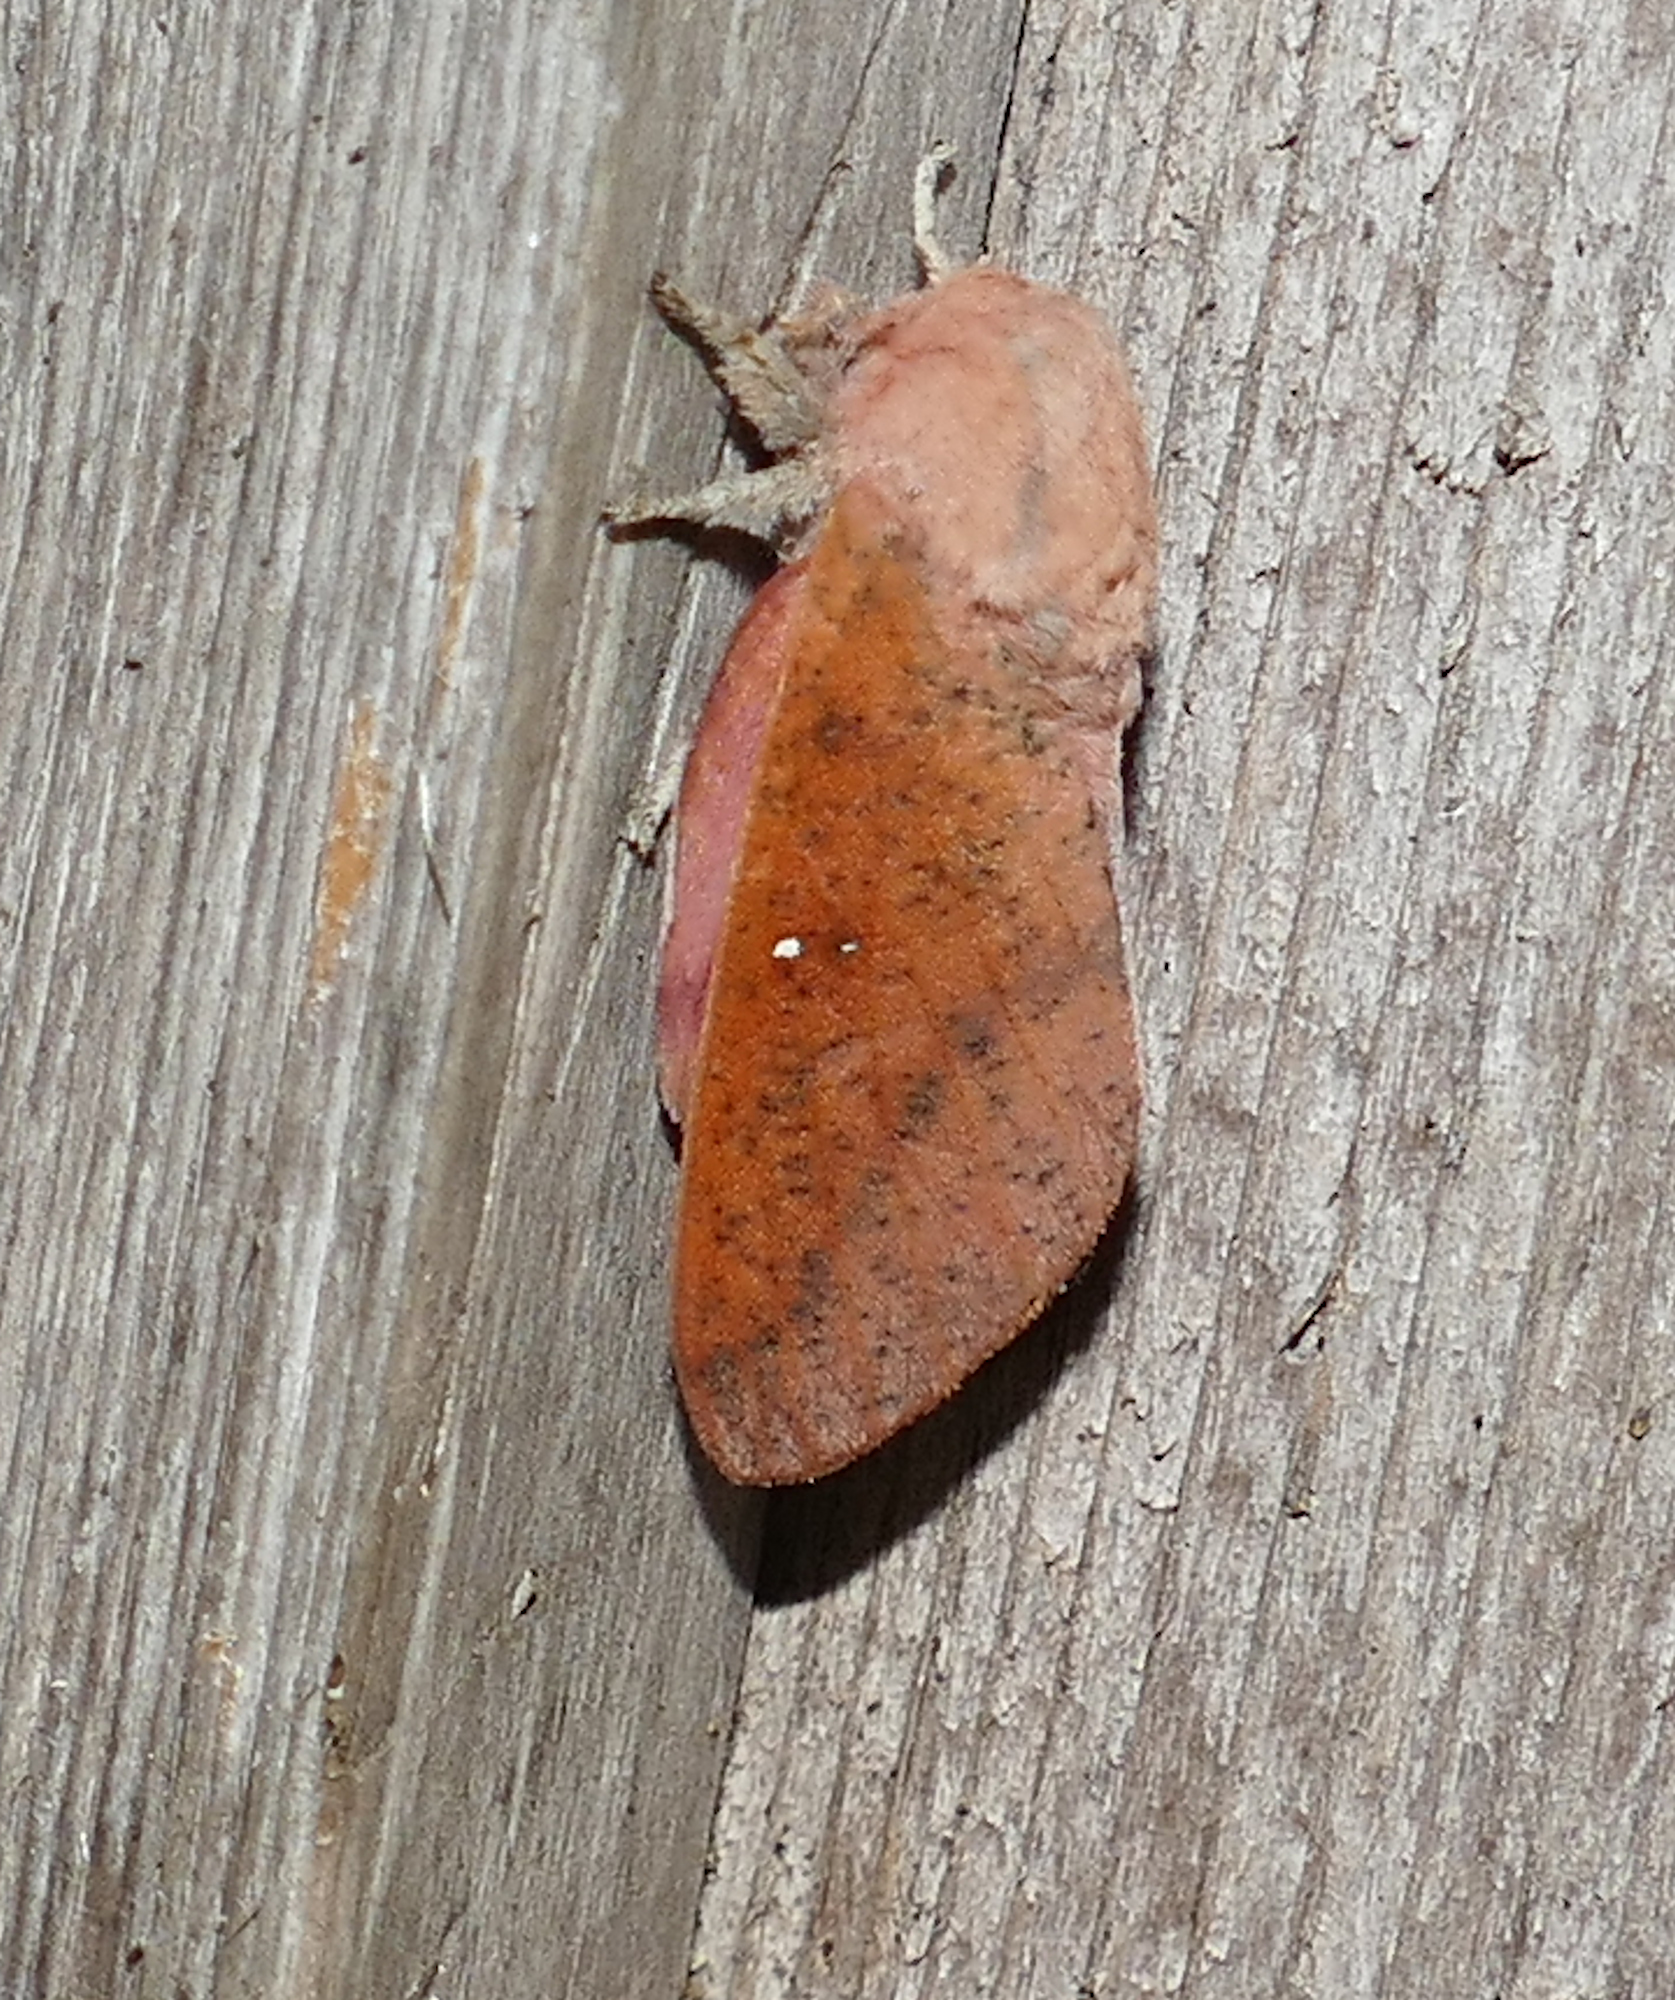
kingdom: Animalia
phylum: Arthropoda
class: Insecta
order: Lepidoptera
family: Saturniidae
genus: Syssphinx
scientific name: Syssphinx bicolor
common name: Honey locust moth
